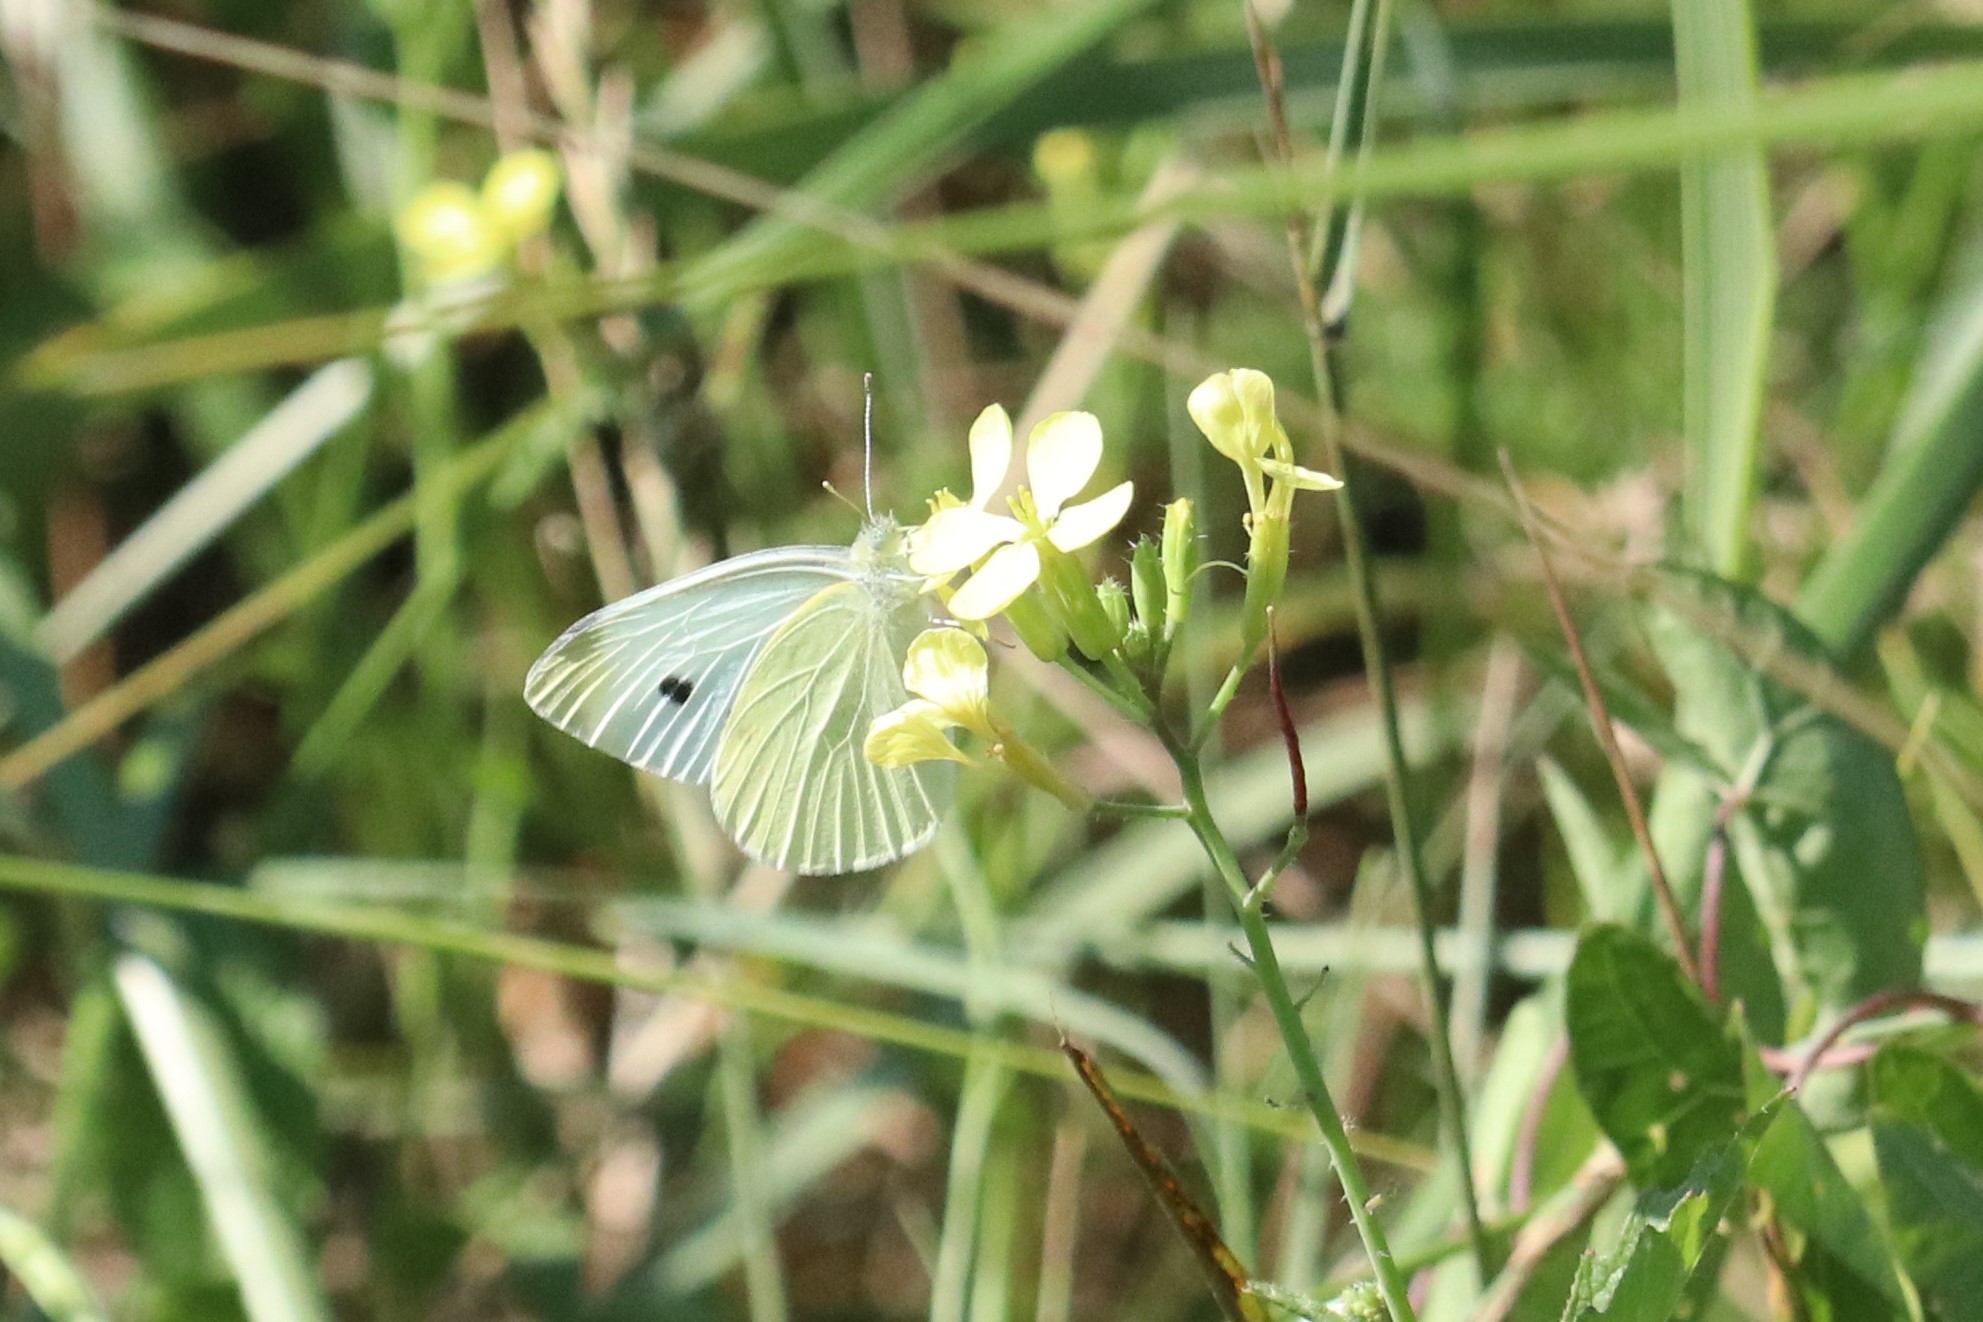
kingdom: Animalia
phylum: Arthropoda
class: Insecta
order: Lepidoptera
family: Pieridae
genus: Pieris
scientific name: Pieris rapae
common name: Small white
